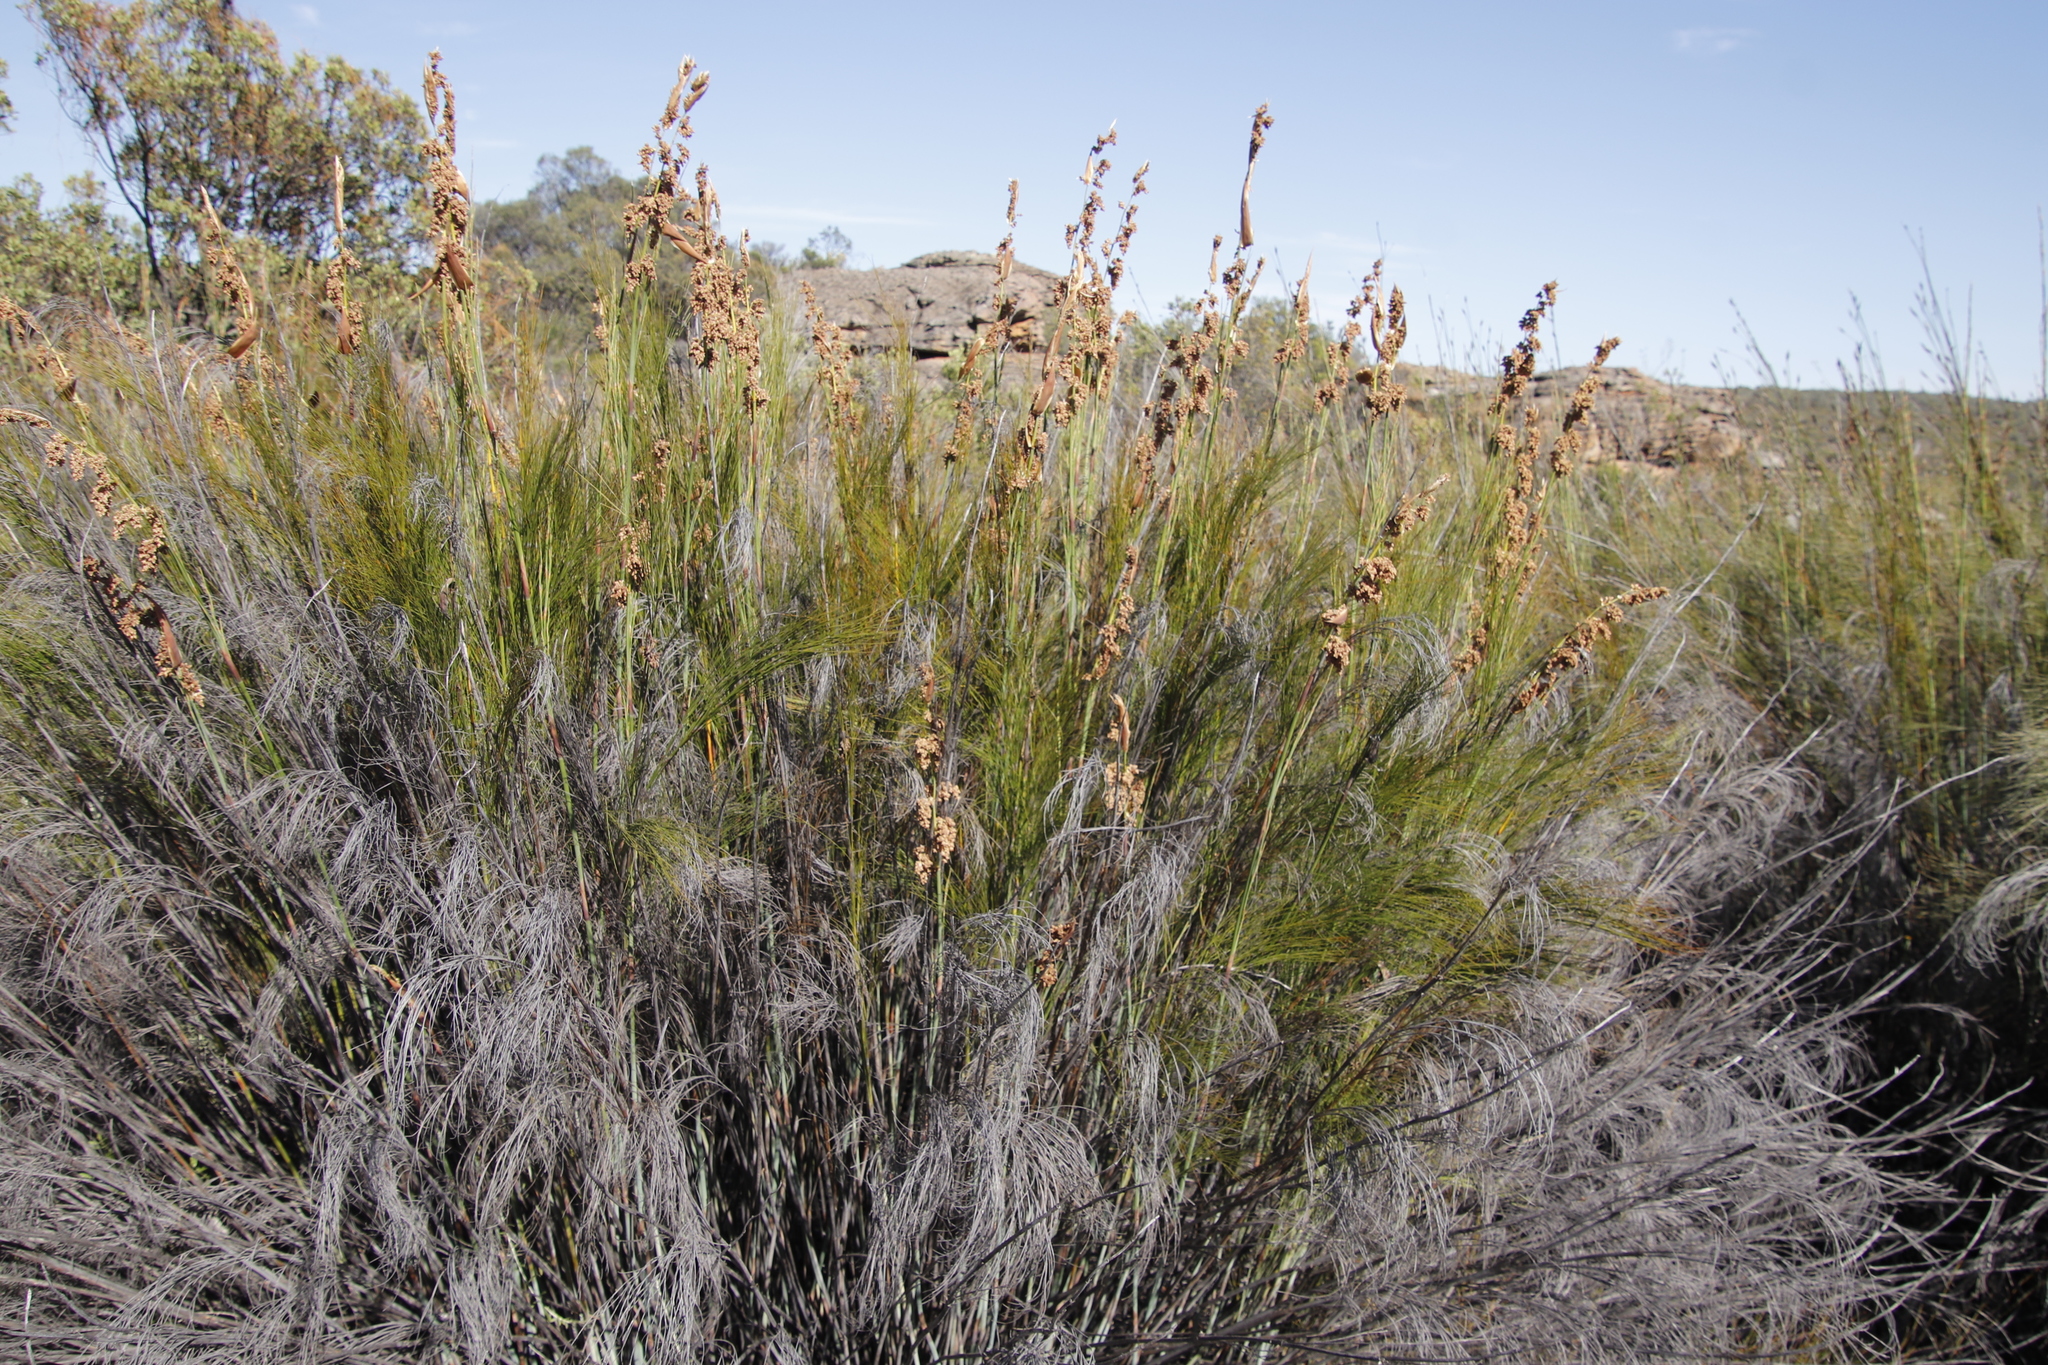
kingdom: Plantae
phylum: Tracheophyta
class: Liliopsida
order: Poales
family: Restionaceae
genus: Cannomois
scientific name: Cannomois robusta
